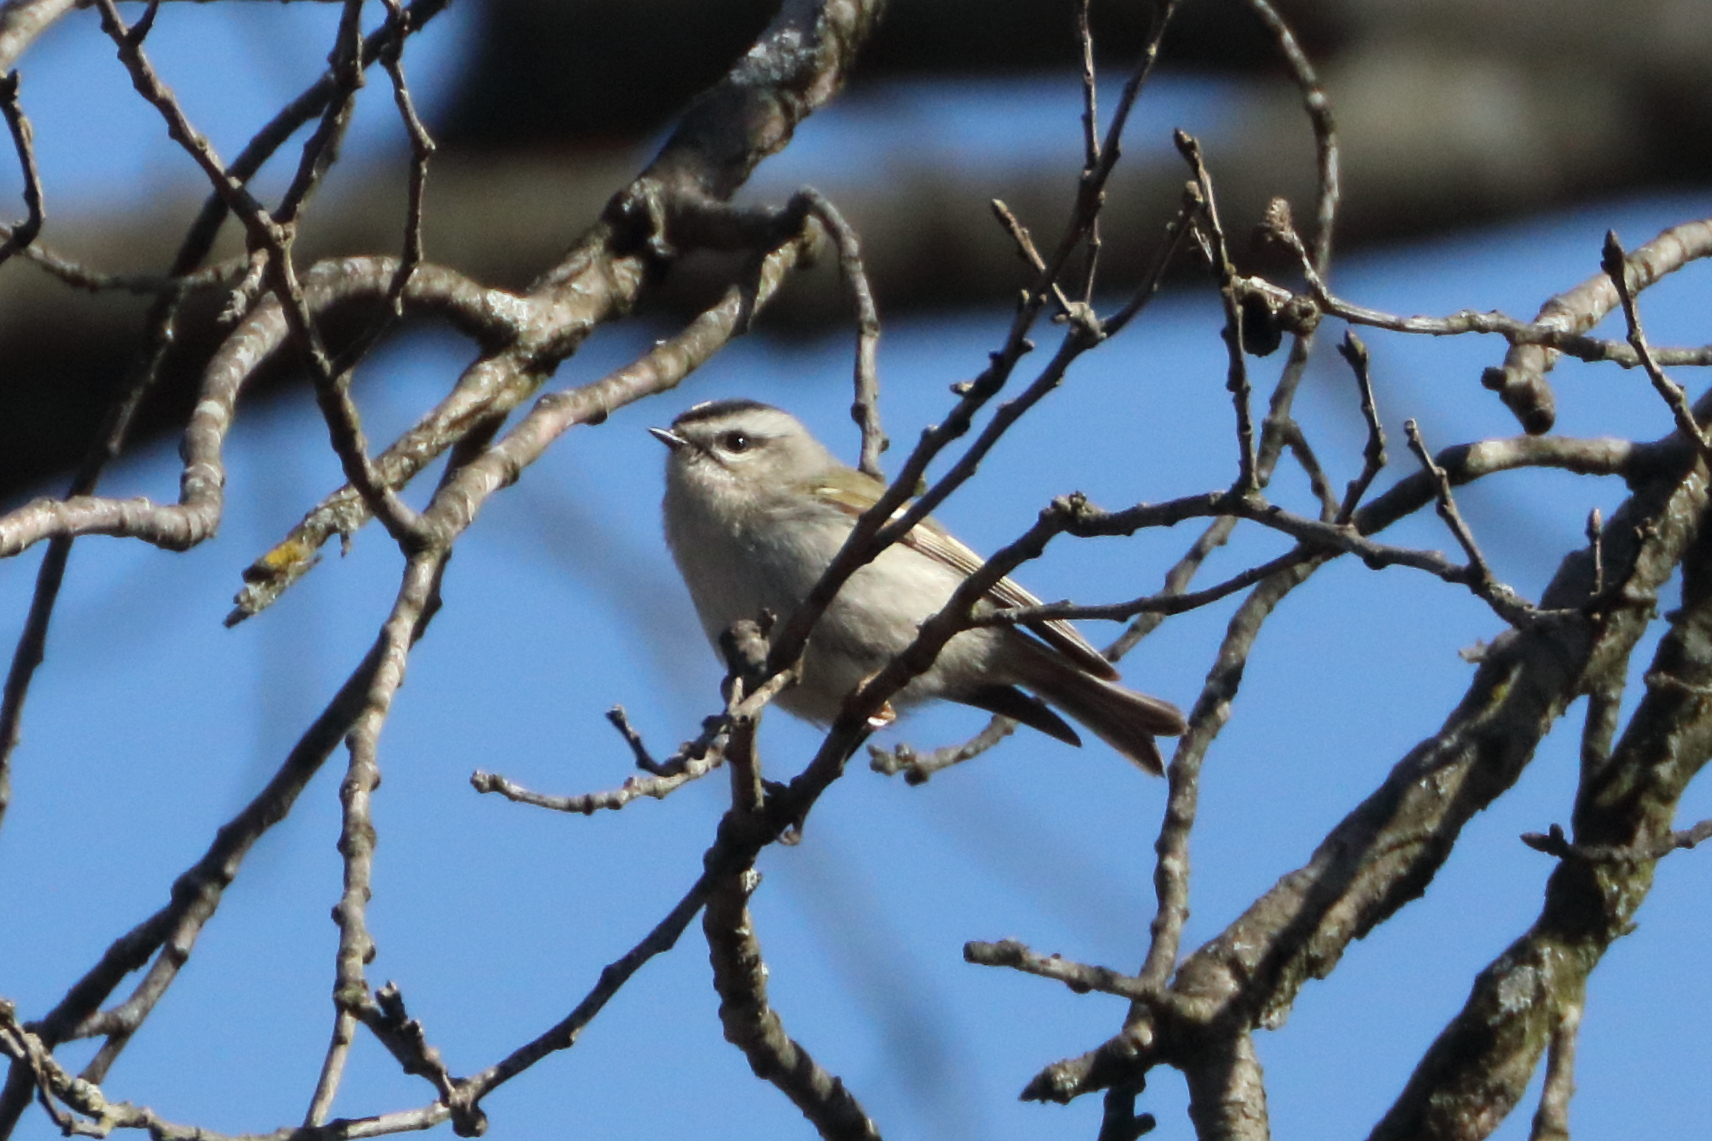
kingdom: Animalia
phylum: Chordata
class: Aves
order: Passeriformes
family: Regulidae
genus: Regulus
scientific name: Regulus satrapa
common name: Golden-crowned kinglet
